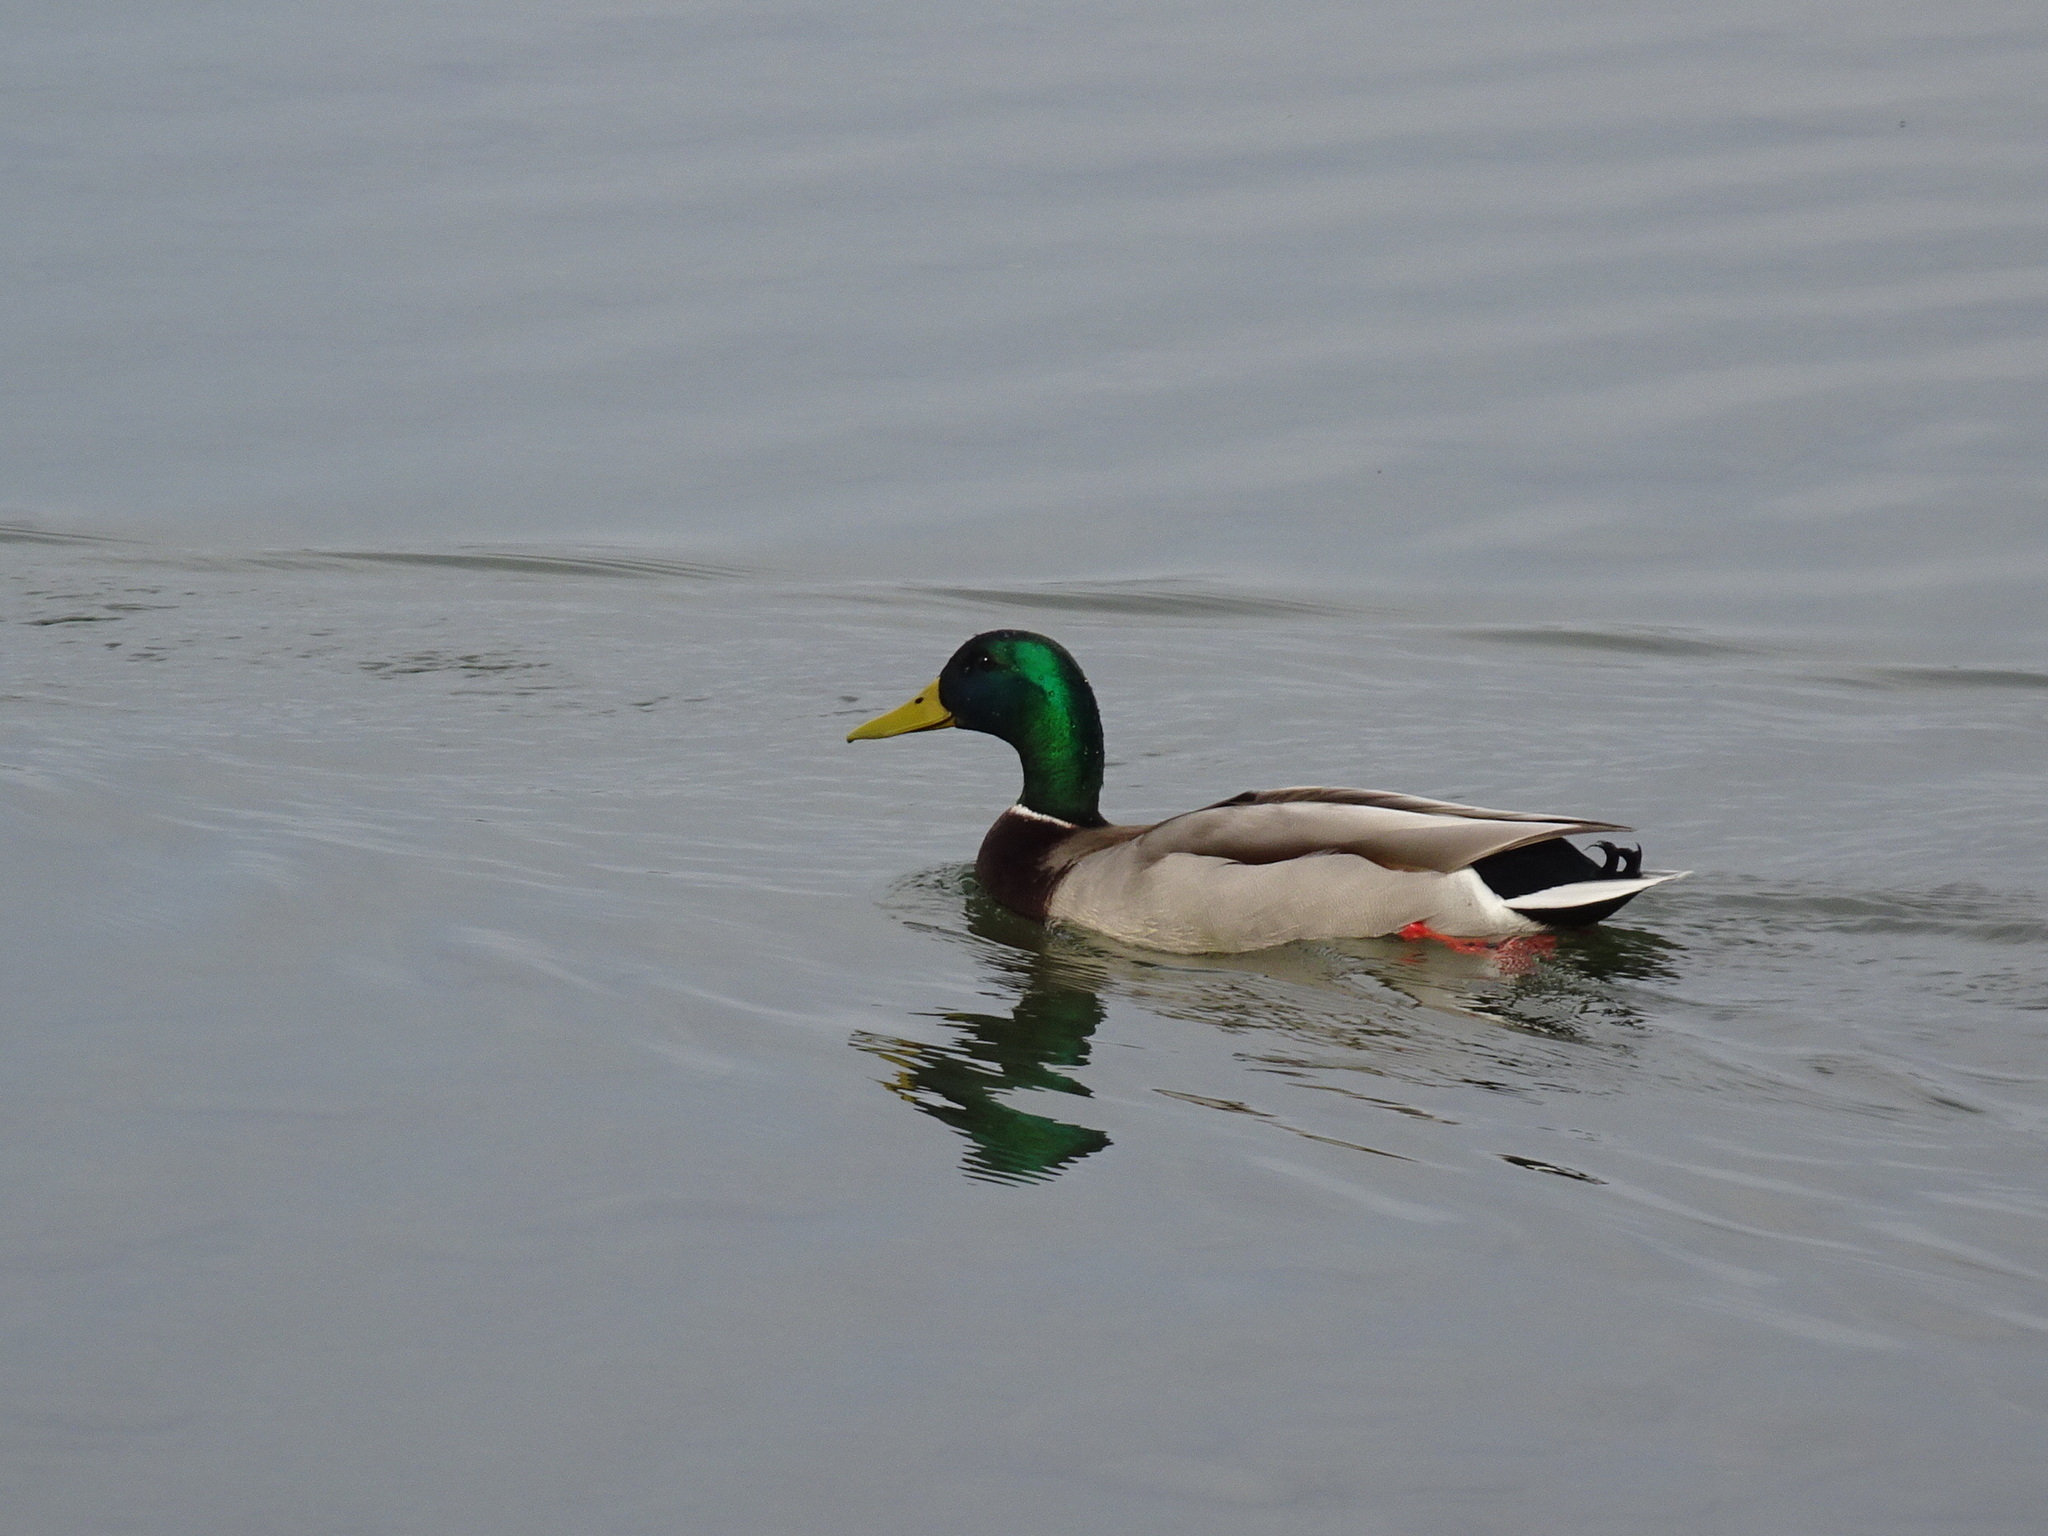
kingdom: Animalia
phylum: Chordata
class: Aves
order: Anseriformes
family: Anatidae
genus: Anas
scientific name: Anas platyrhynchos
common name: Mallard
